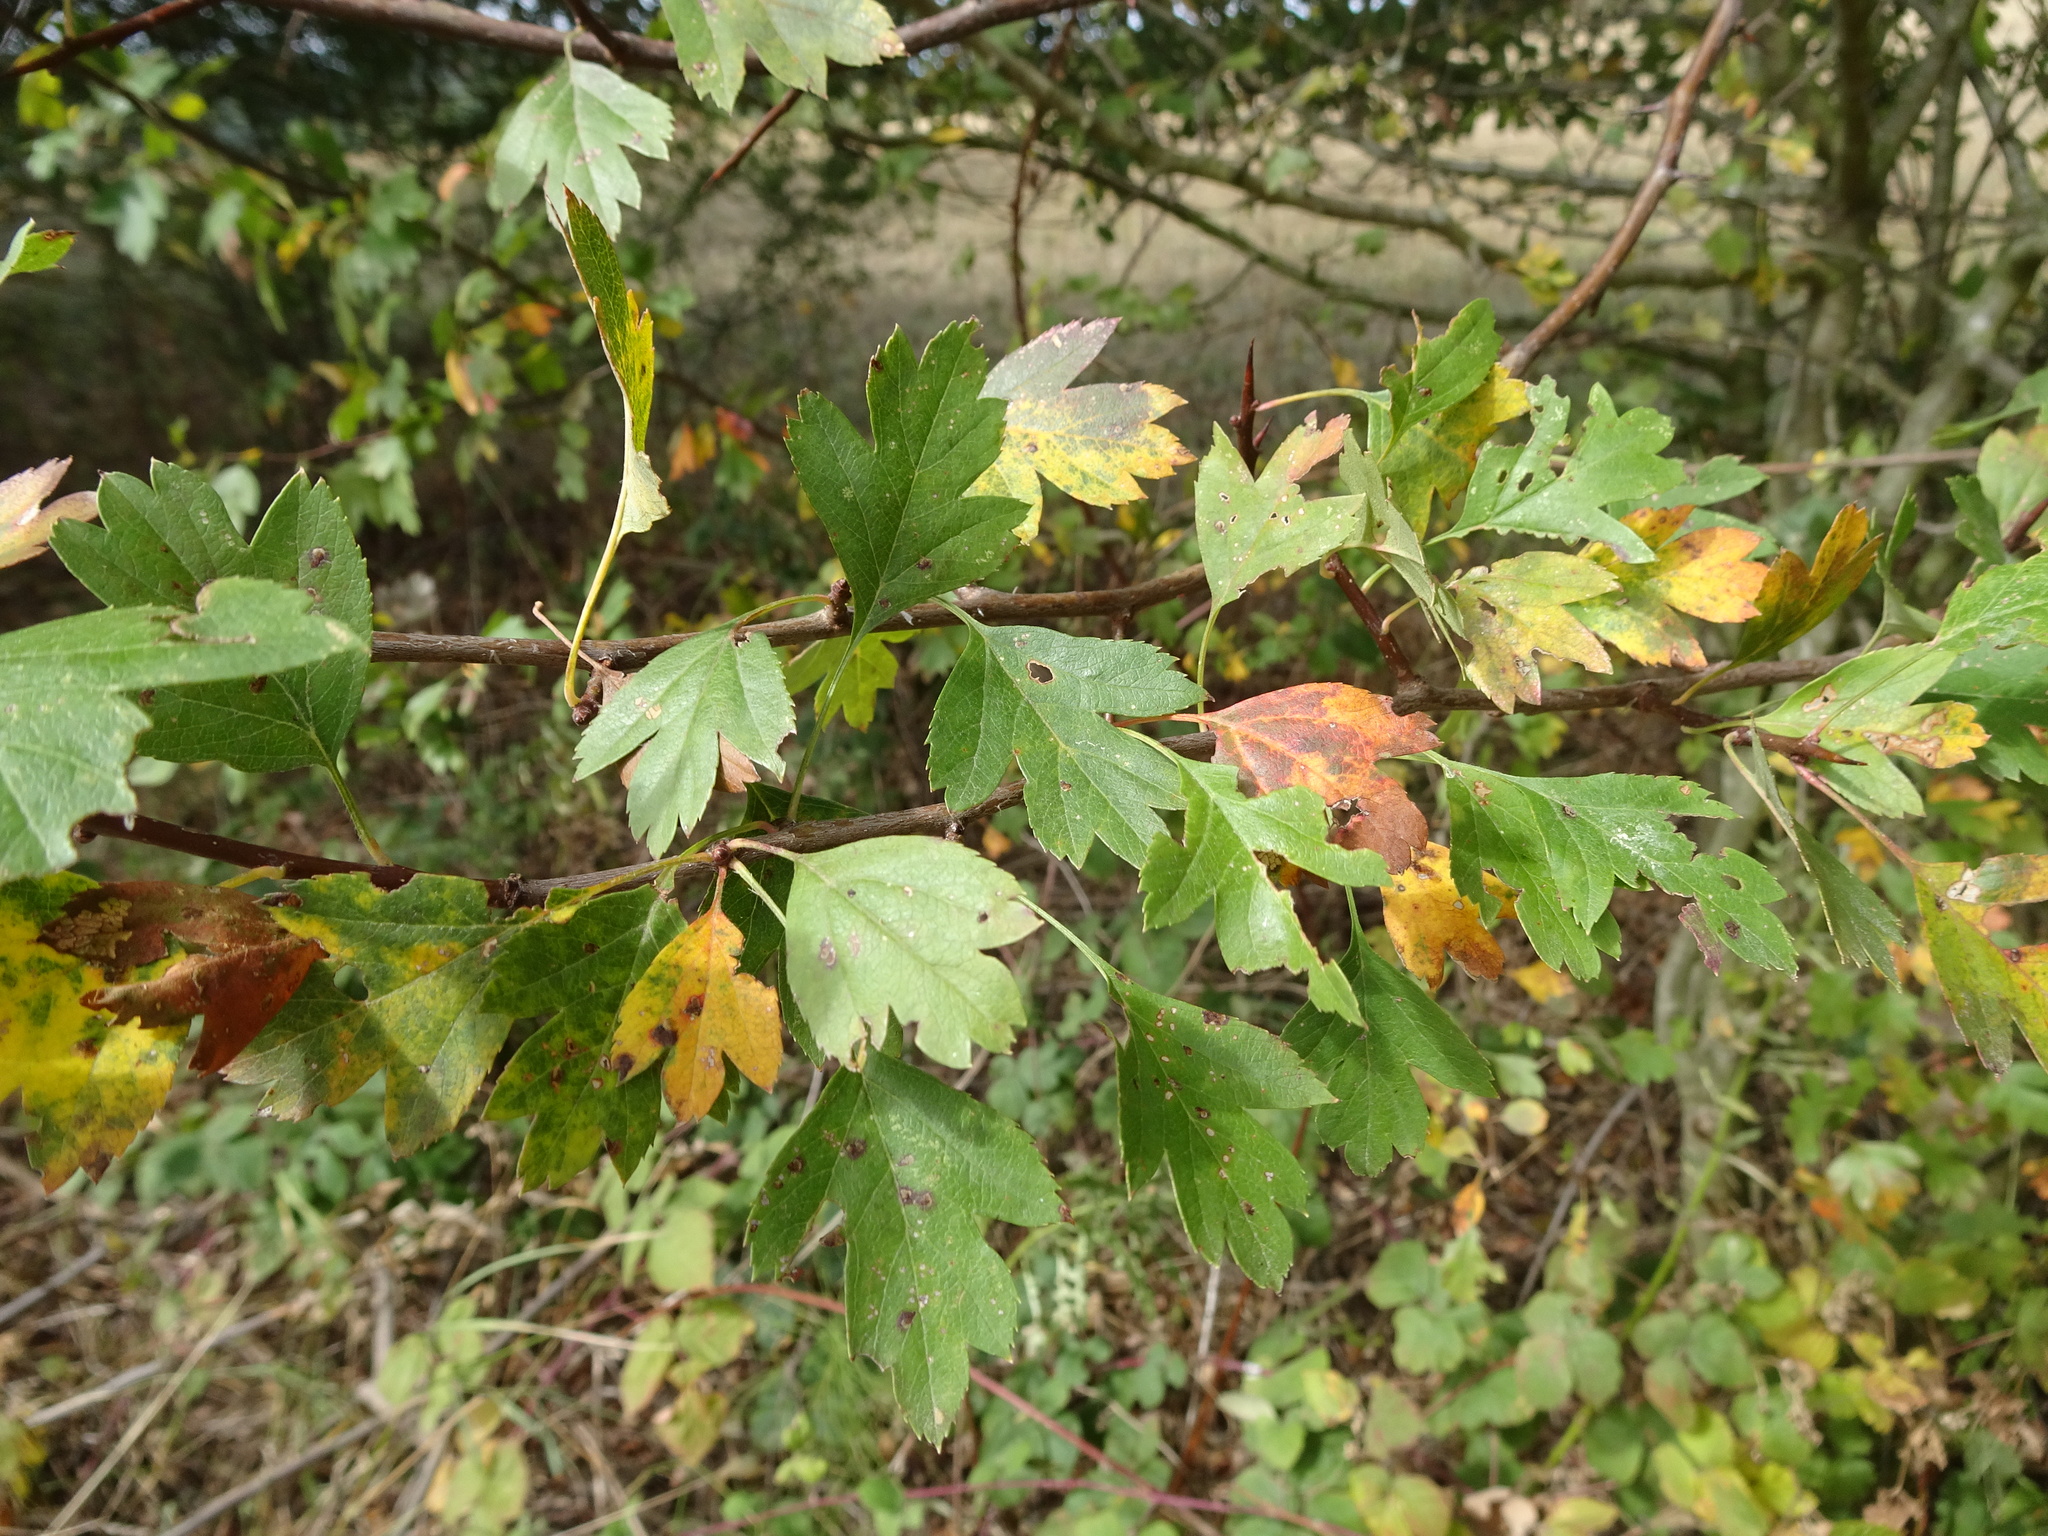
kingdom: Plantae
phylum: Tracheophyta
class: Magnoliopsida
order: Rosales
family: Rosaceae
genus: Crataegus
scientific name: Crataegus monogyna
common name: Hawthorn
